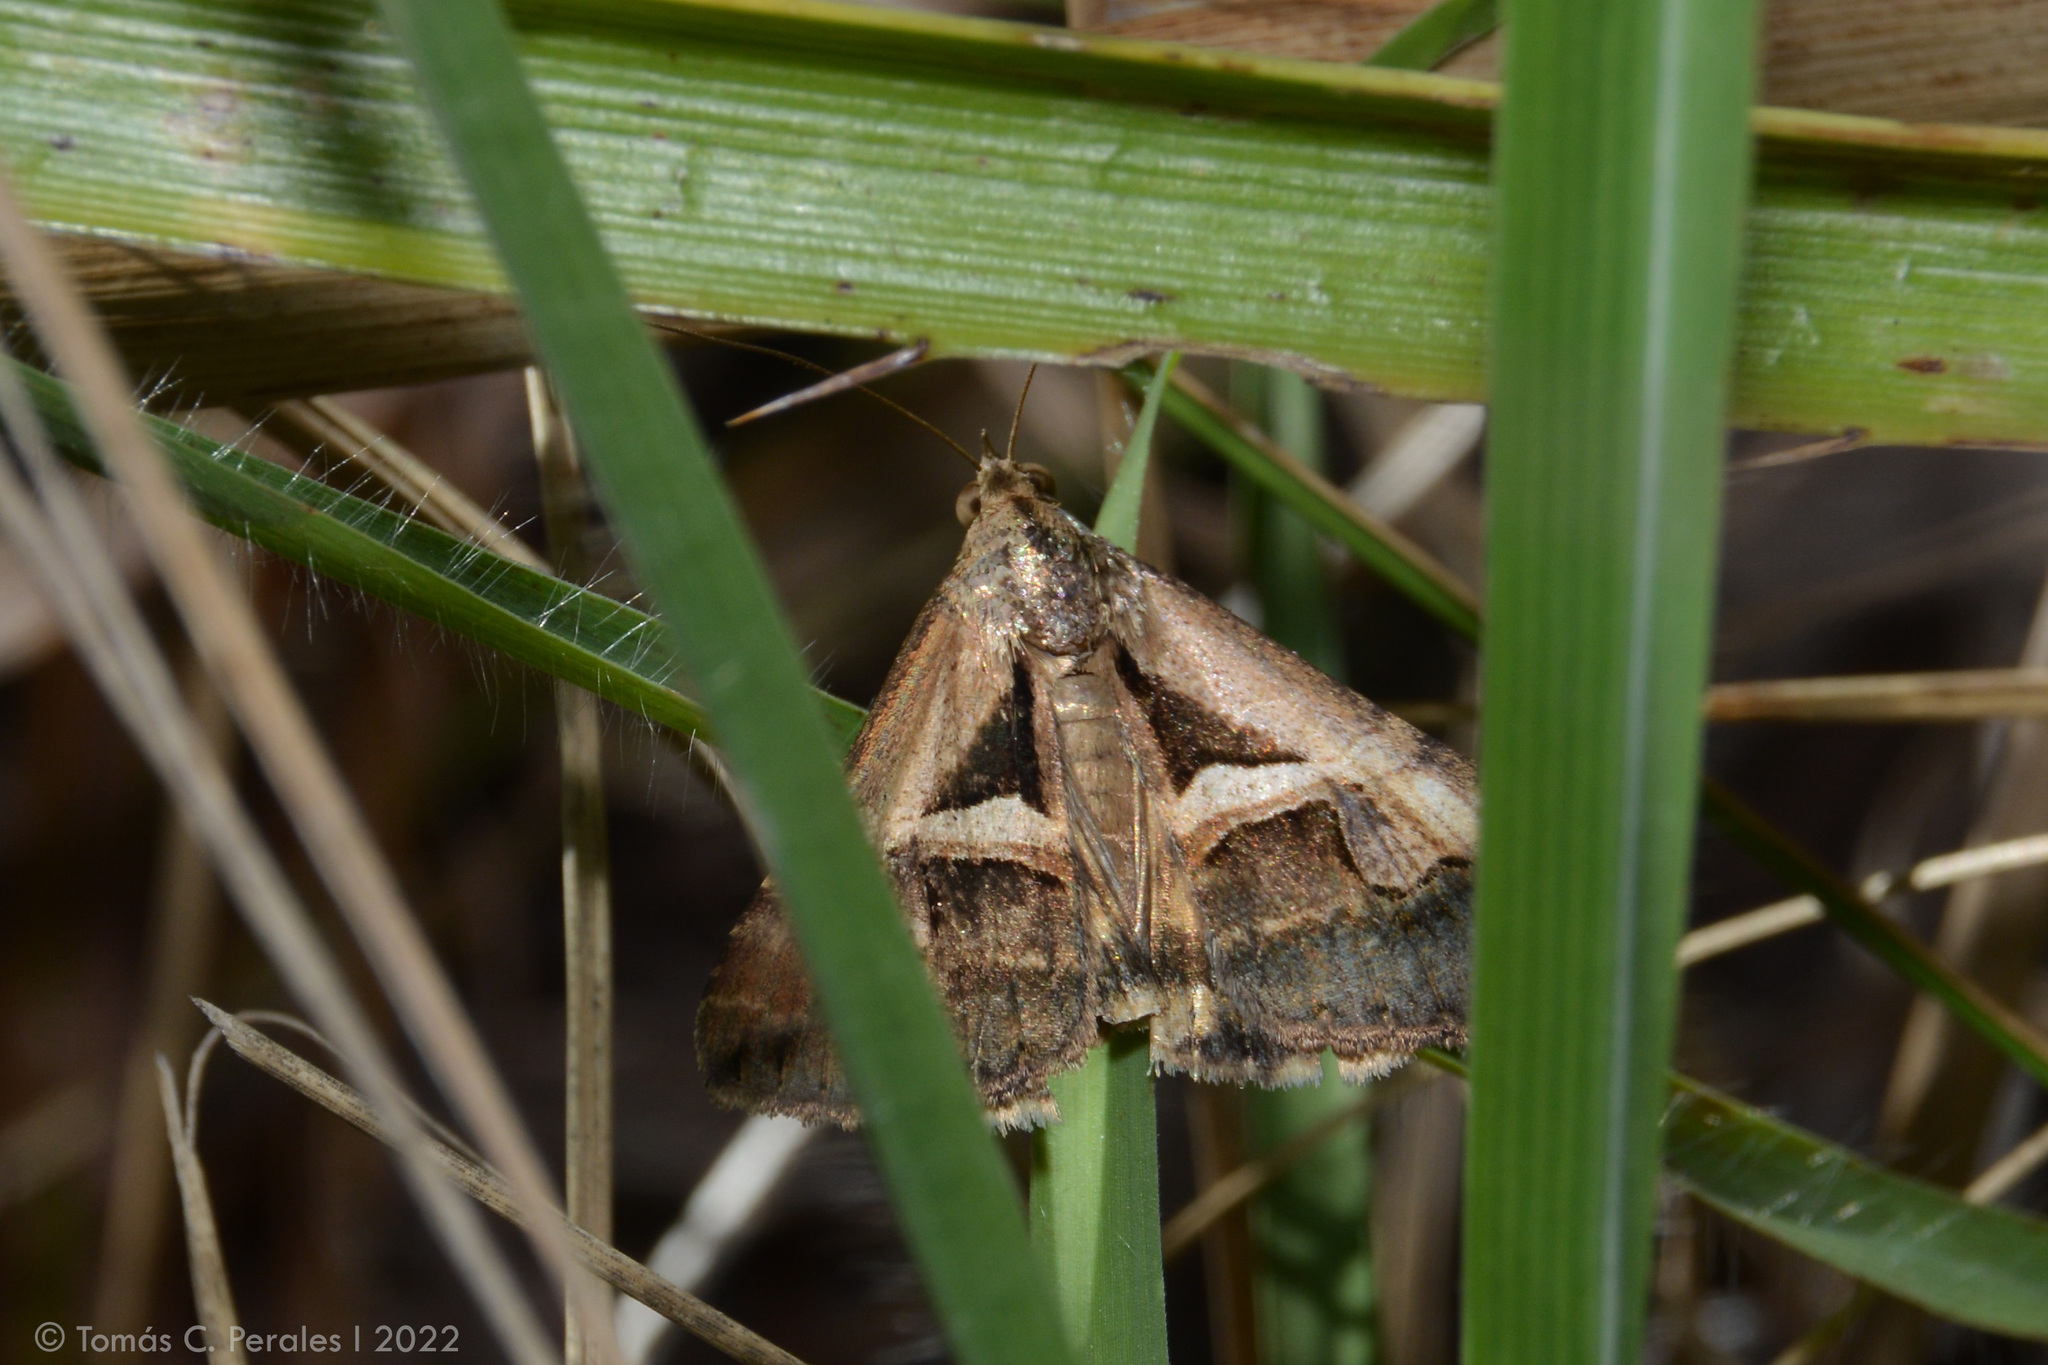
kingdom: Animalia
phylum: Arthropoda
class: Insecta
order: Lepidoptera
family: Erebidae
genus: Melipotis
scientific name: Melipotis cellaris
